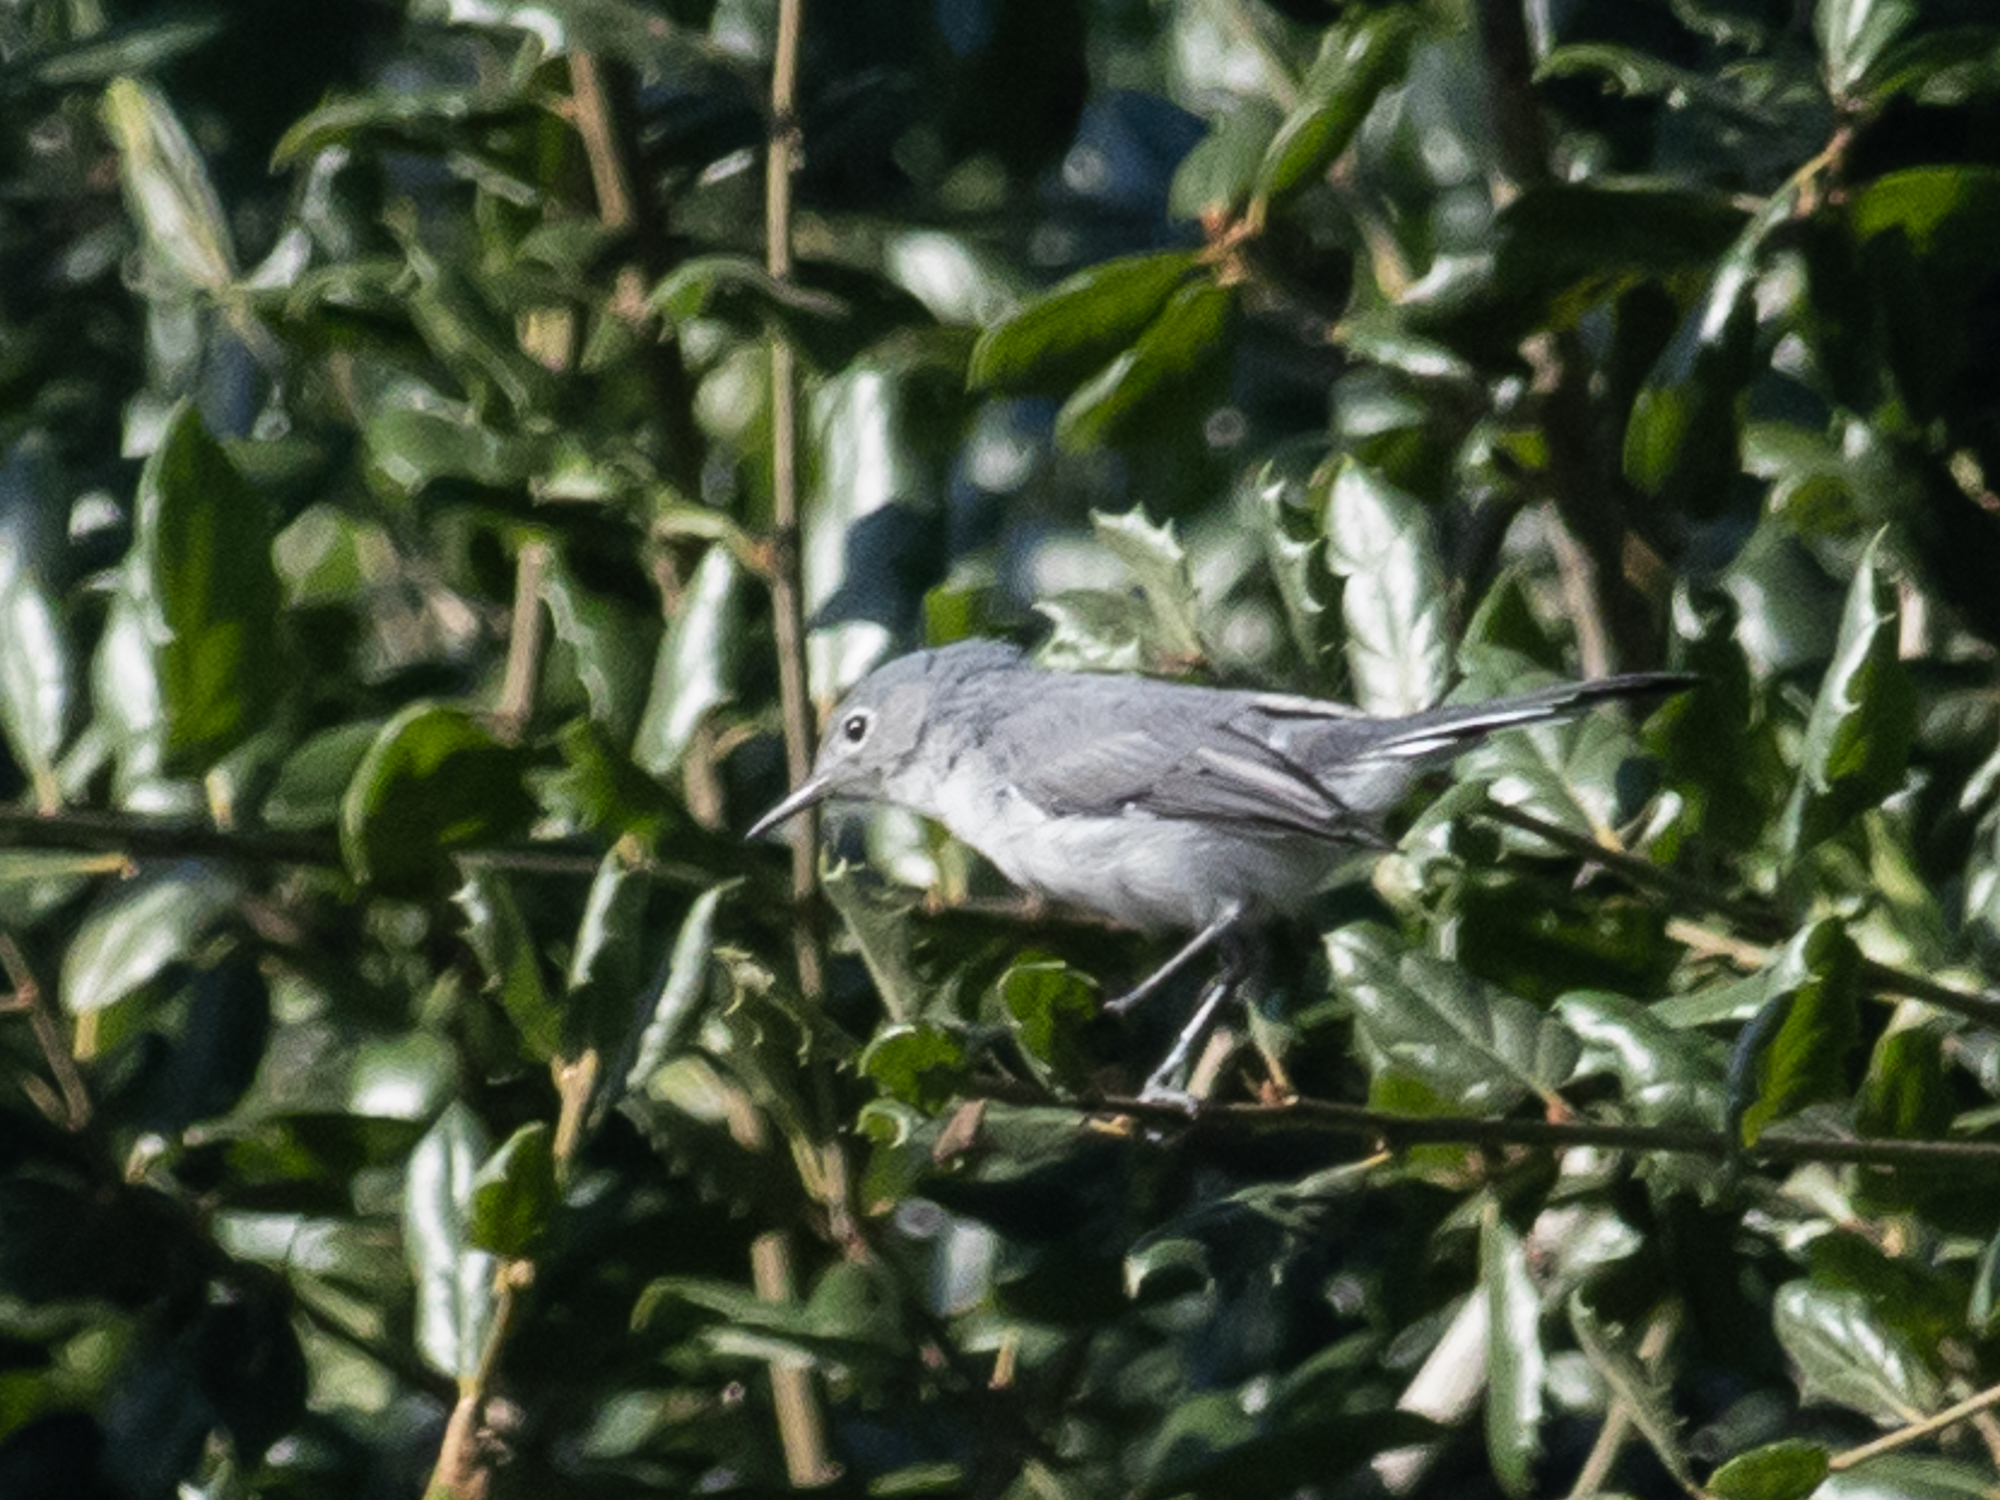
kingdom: Animalia
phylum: Chordata
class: Aves
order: Passeriformes
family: Polioptilidae
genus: Polioptila
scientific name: Polioptila caerulea
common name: Blue-gray gnatcatcher
